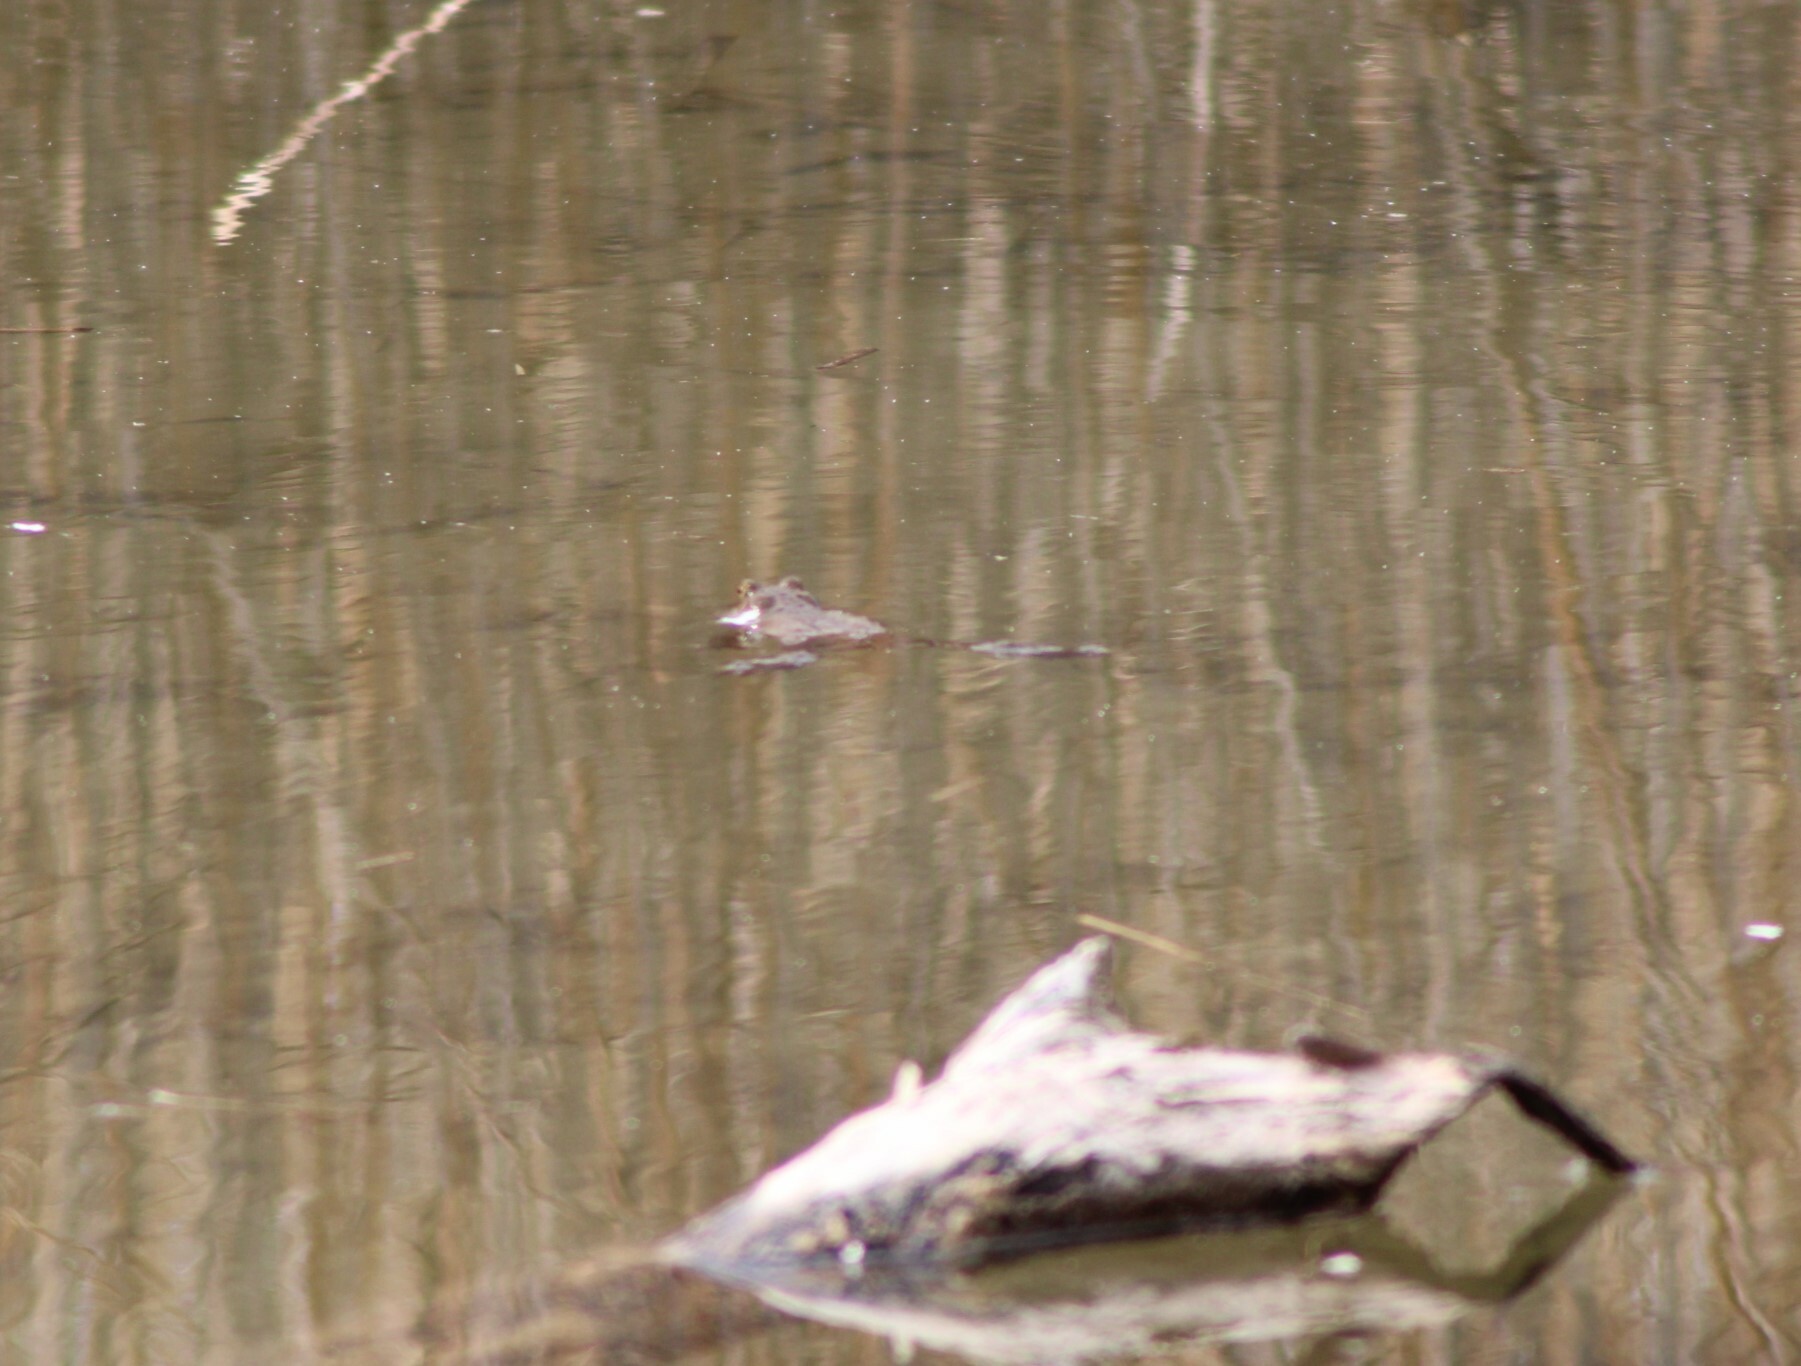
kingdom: Animalia
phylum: Chordata
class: Amphibia
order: Anura
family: Bufonidae
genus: Bufo
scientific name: Bufo bufo
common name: Common toad
